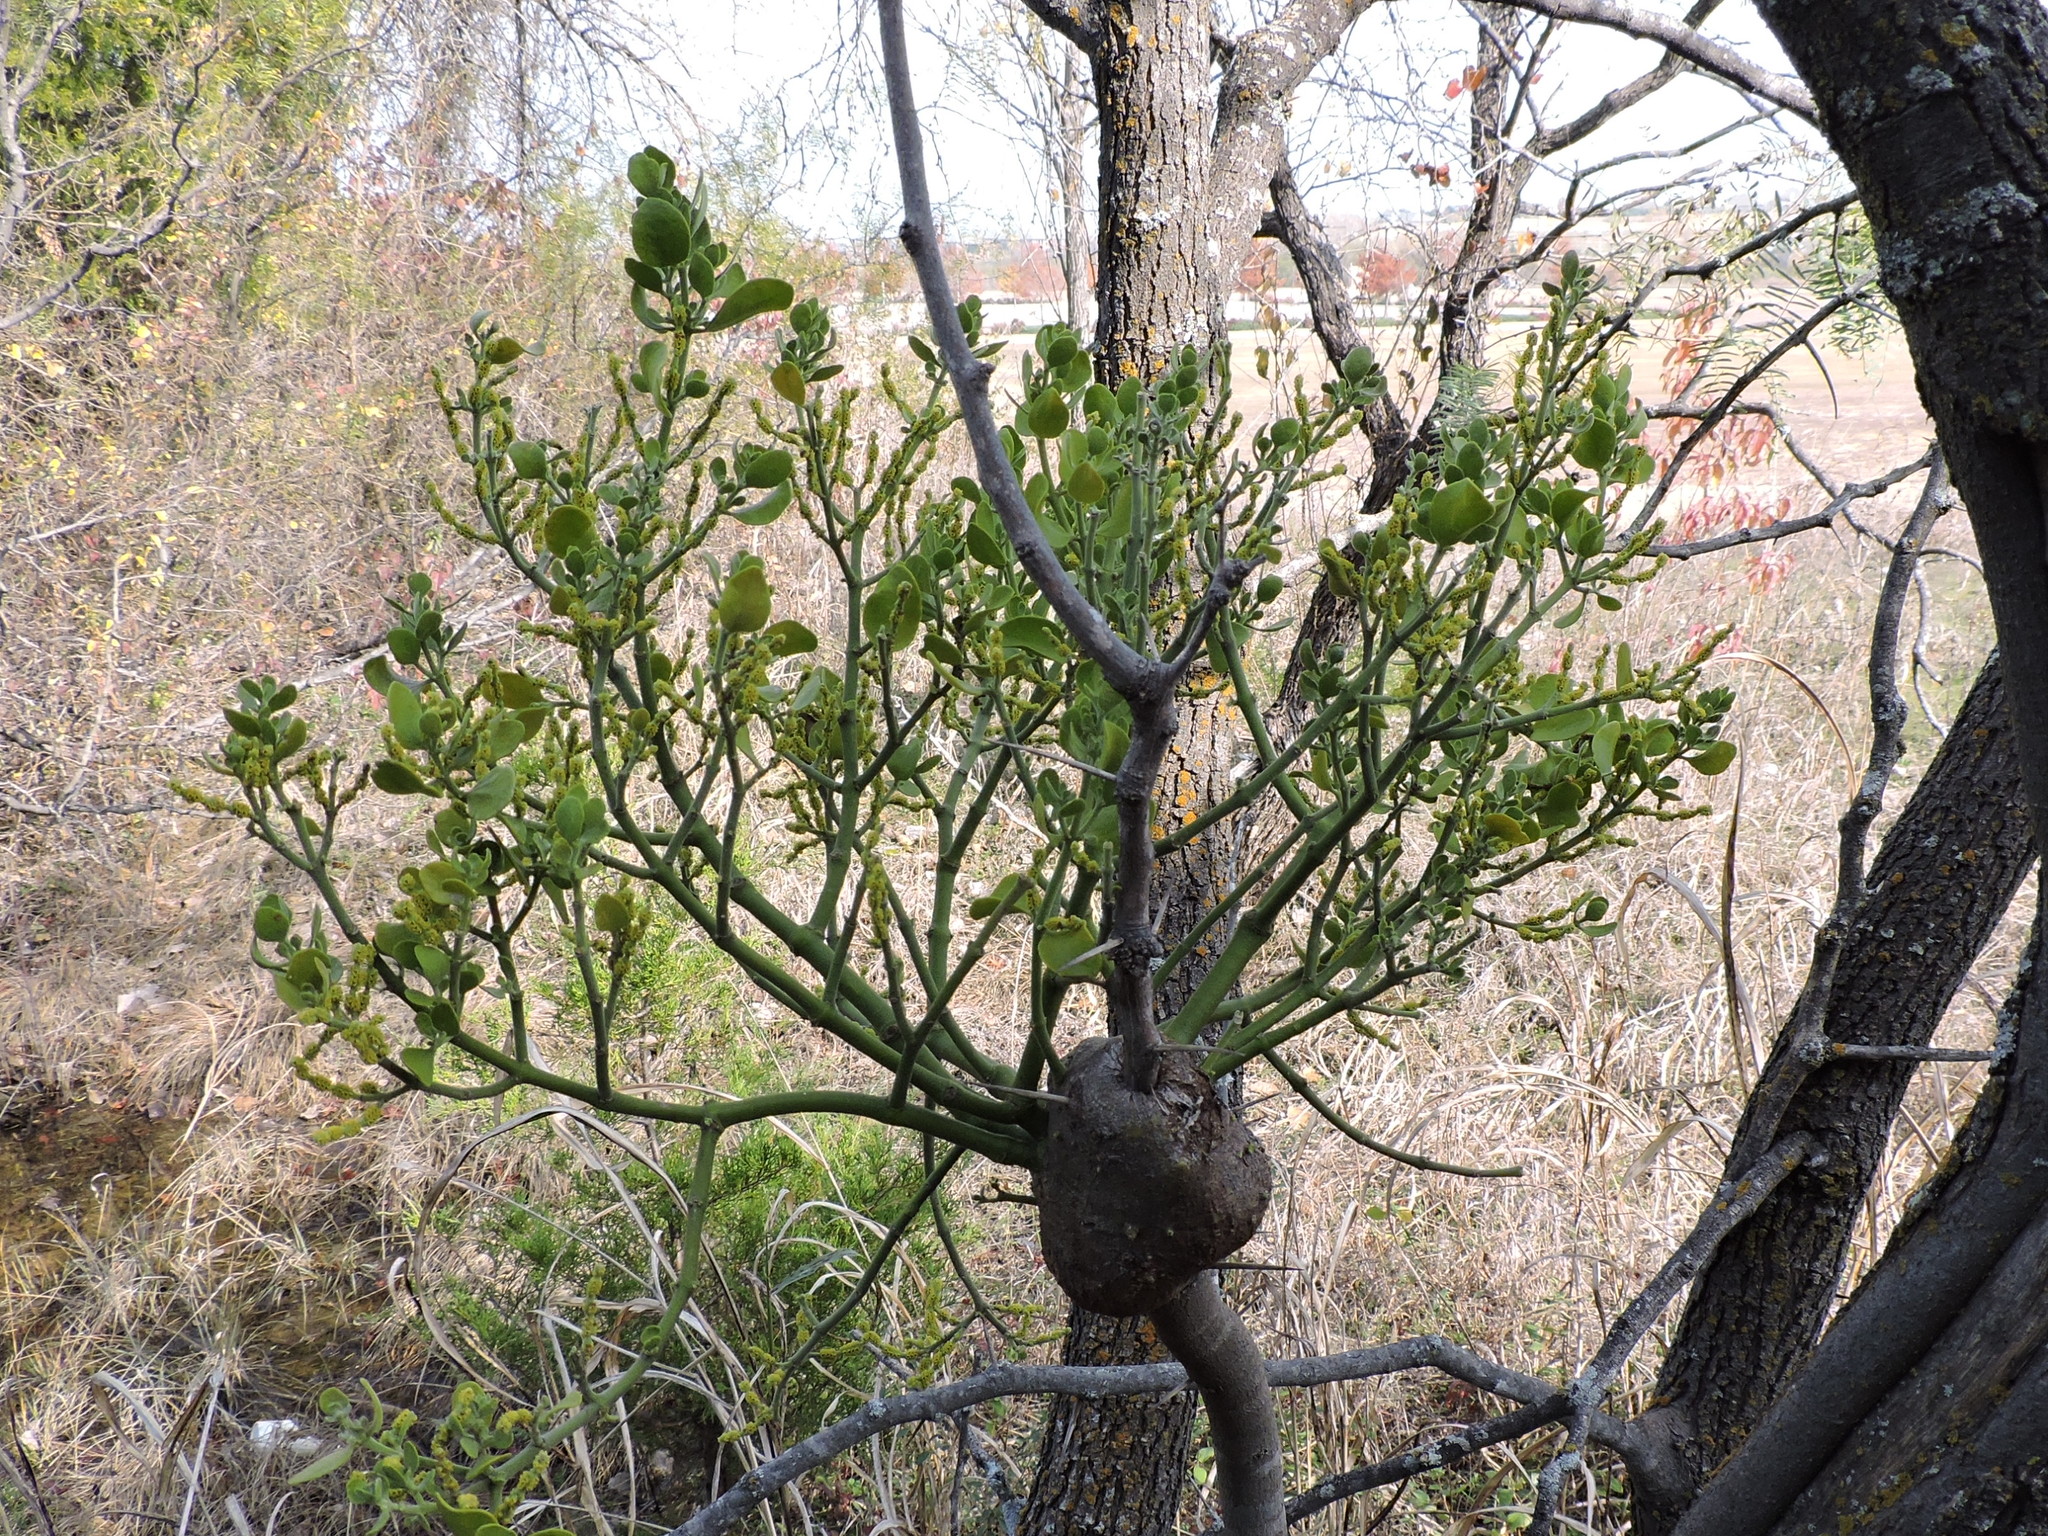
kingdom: Plantae
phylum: Tracheophyta
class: Magnoliopsida
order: Santalales
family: Viscaceae
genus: Phoradendron
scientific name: Phoradendron leucarpum
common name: Pacific mistletoe
